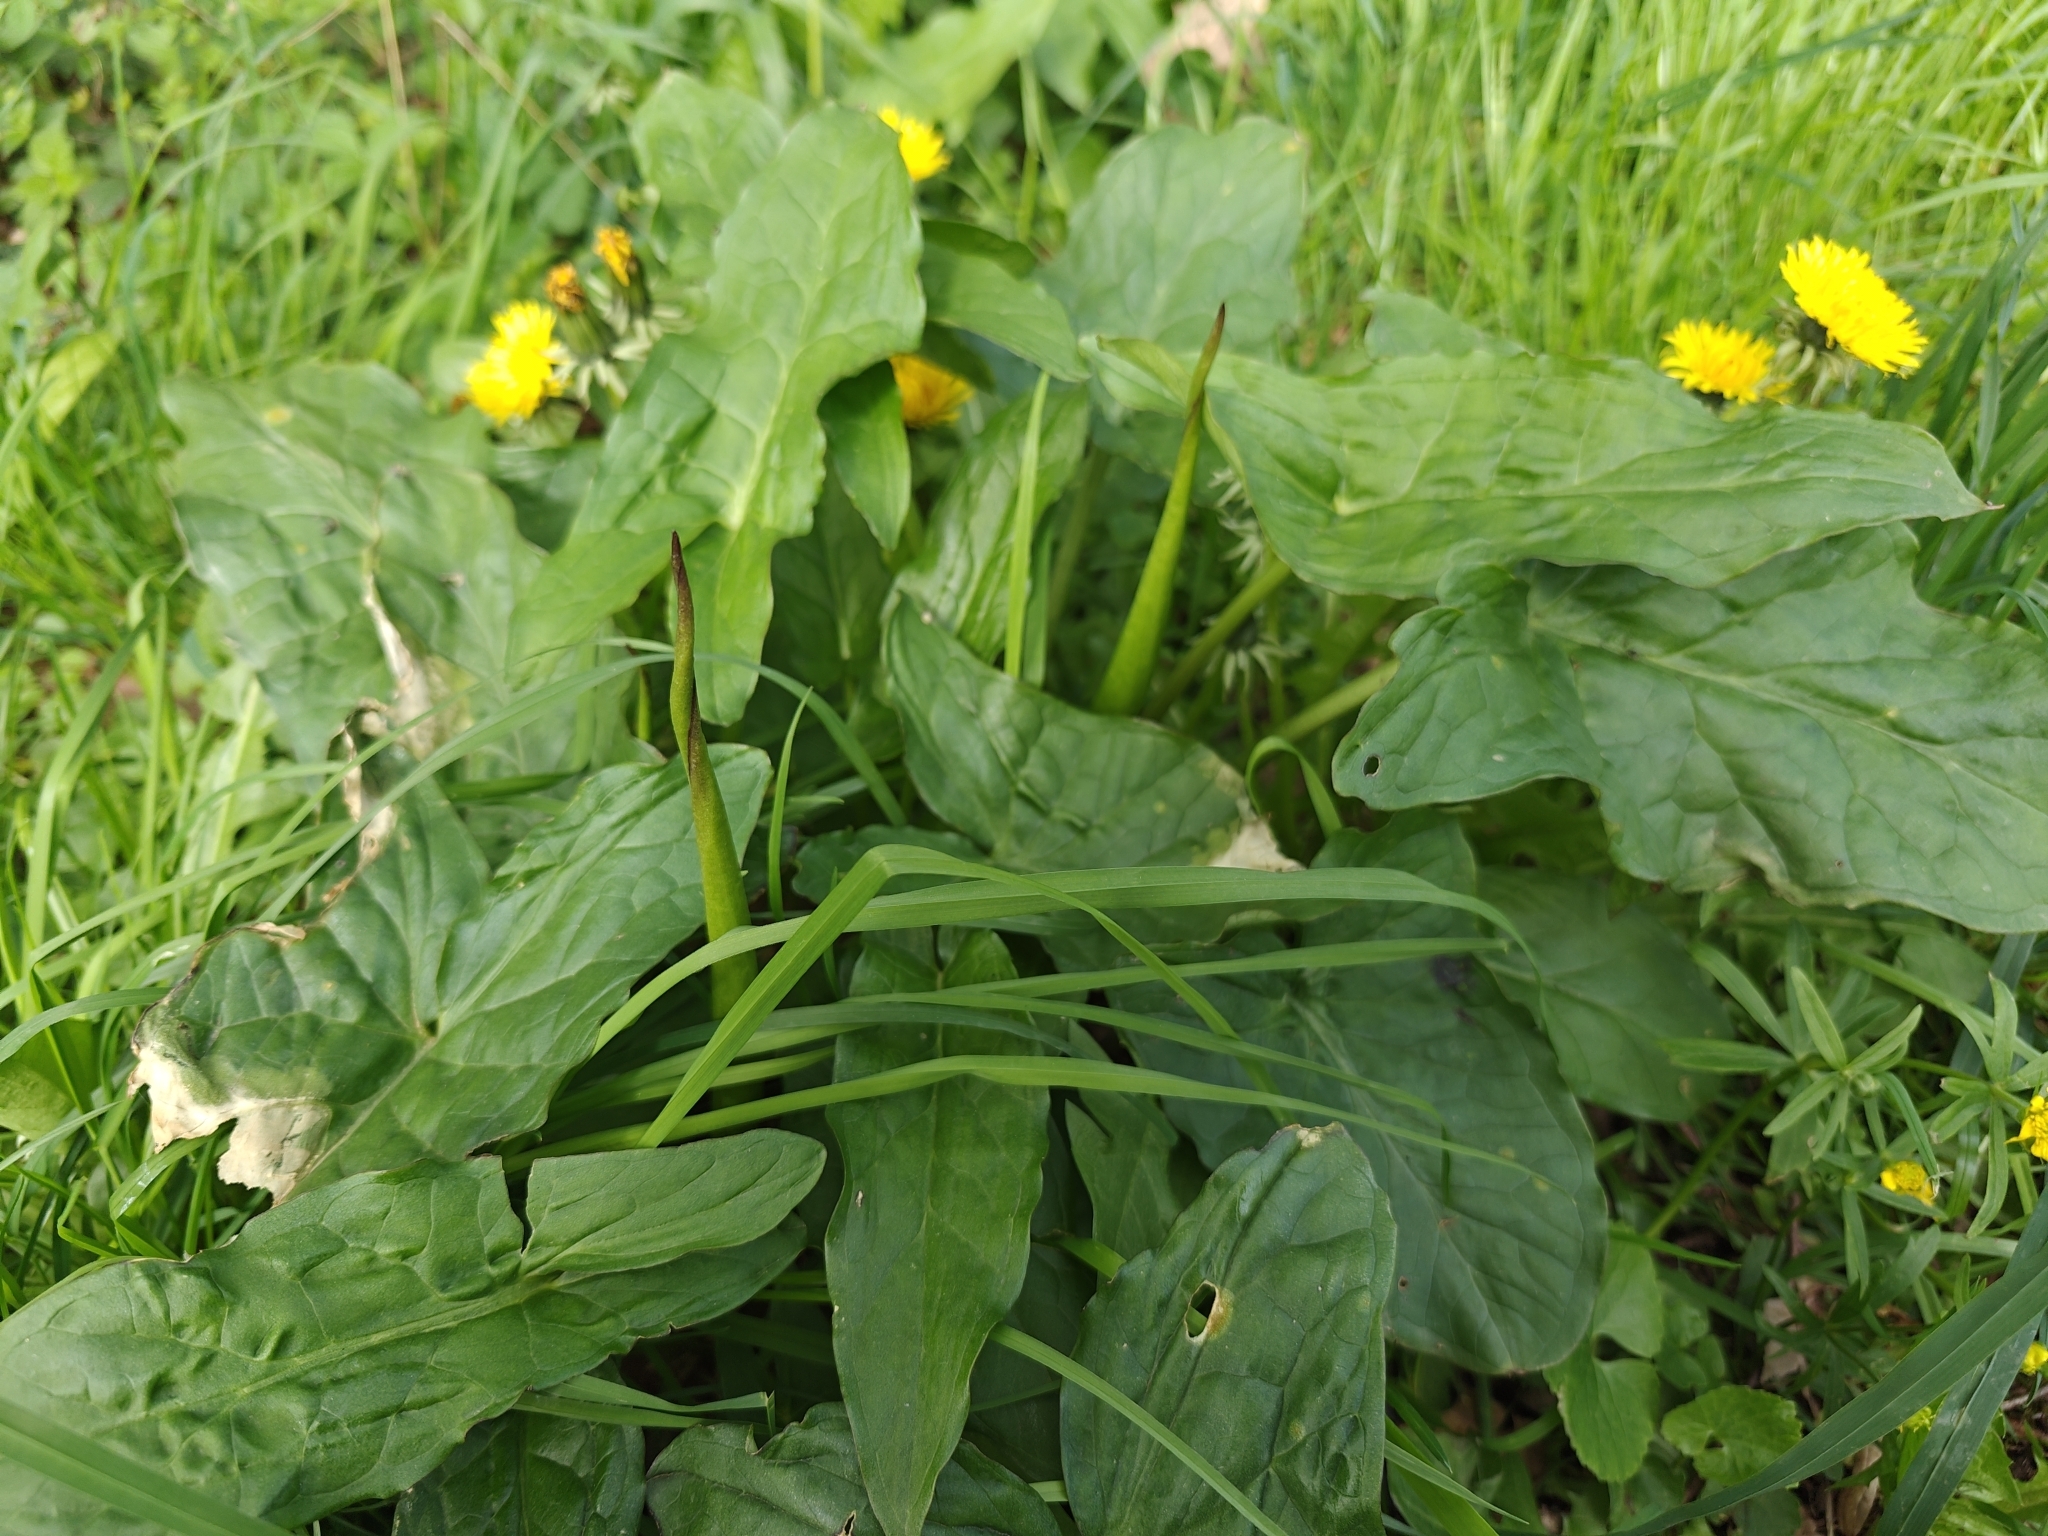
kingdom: Plantae
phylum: Tracheophyta
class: Liliopsida
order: Alismatales
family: Araceae
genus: Arum
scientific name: Arum maculatum
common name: Lords-and-ladies
